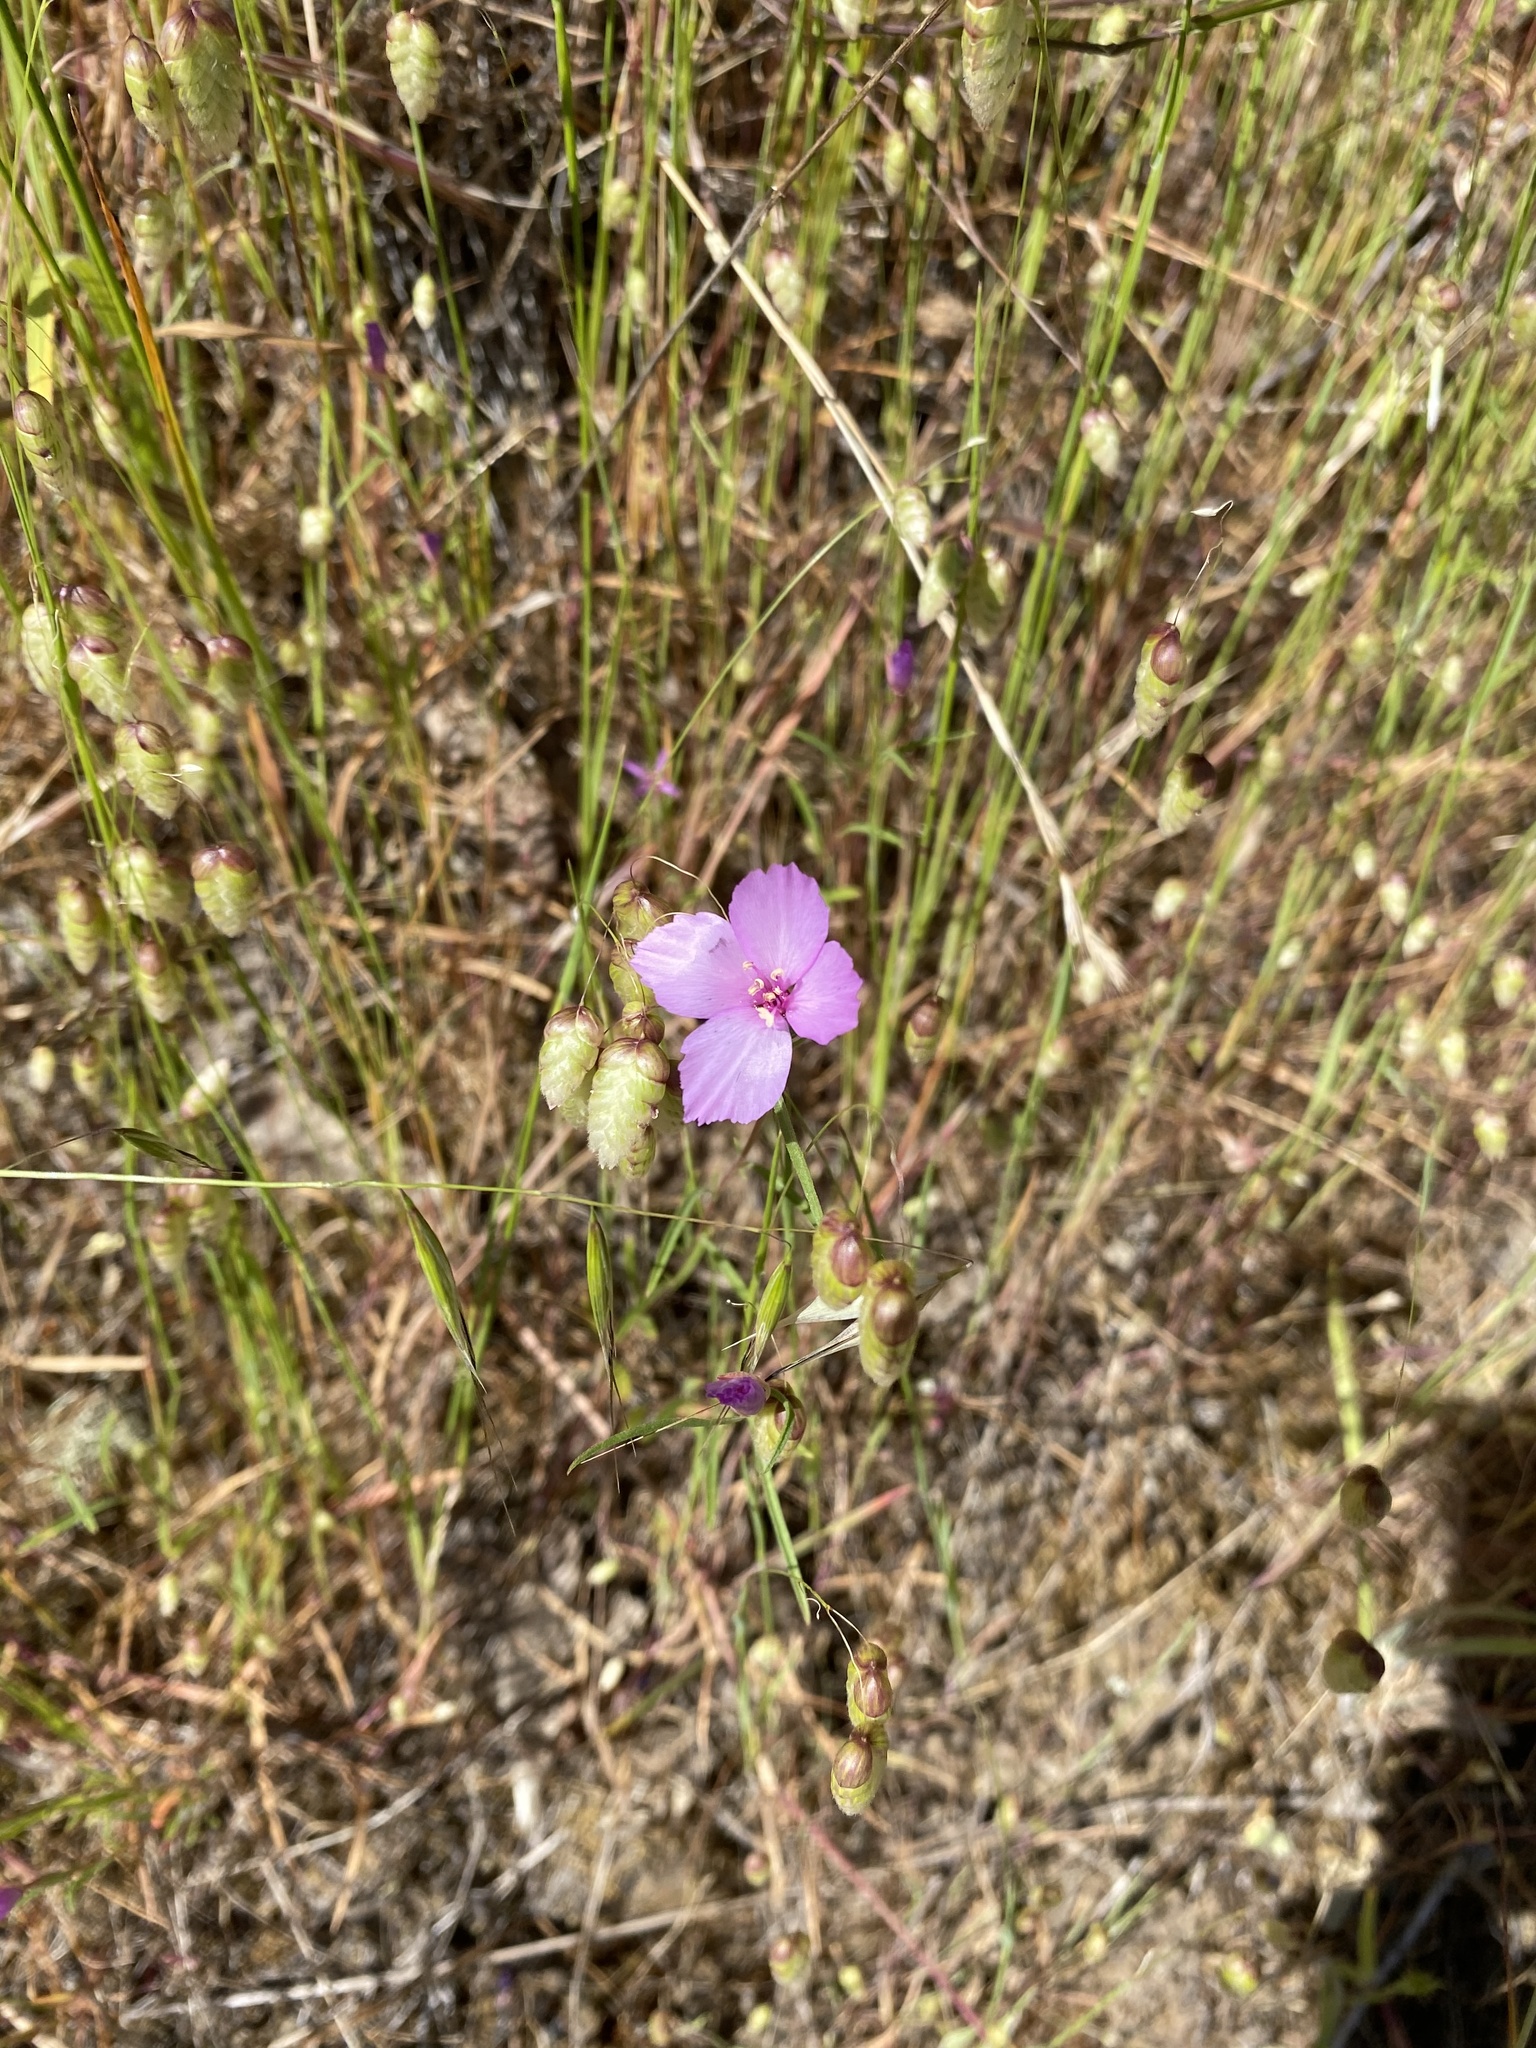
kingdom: Plantae
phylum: Tracheophyta
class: Magnoliopsida
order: Myrtales
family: Onagraceae
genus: Clarkia
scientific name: Clarkia rubicunda
